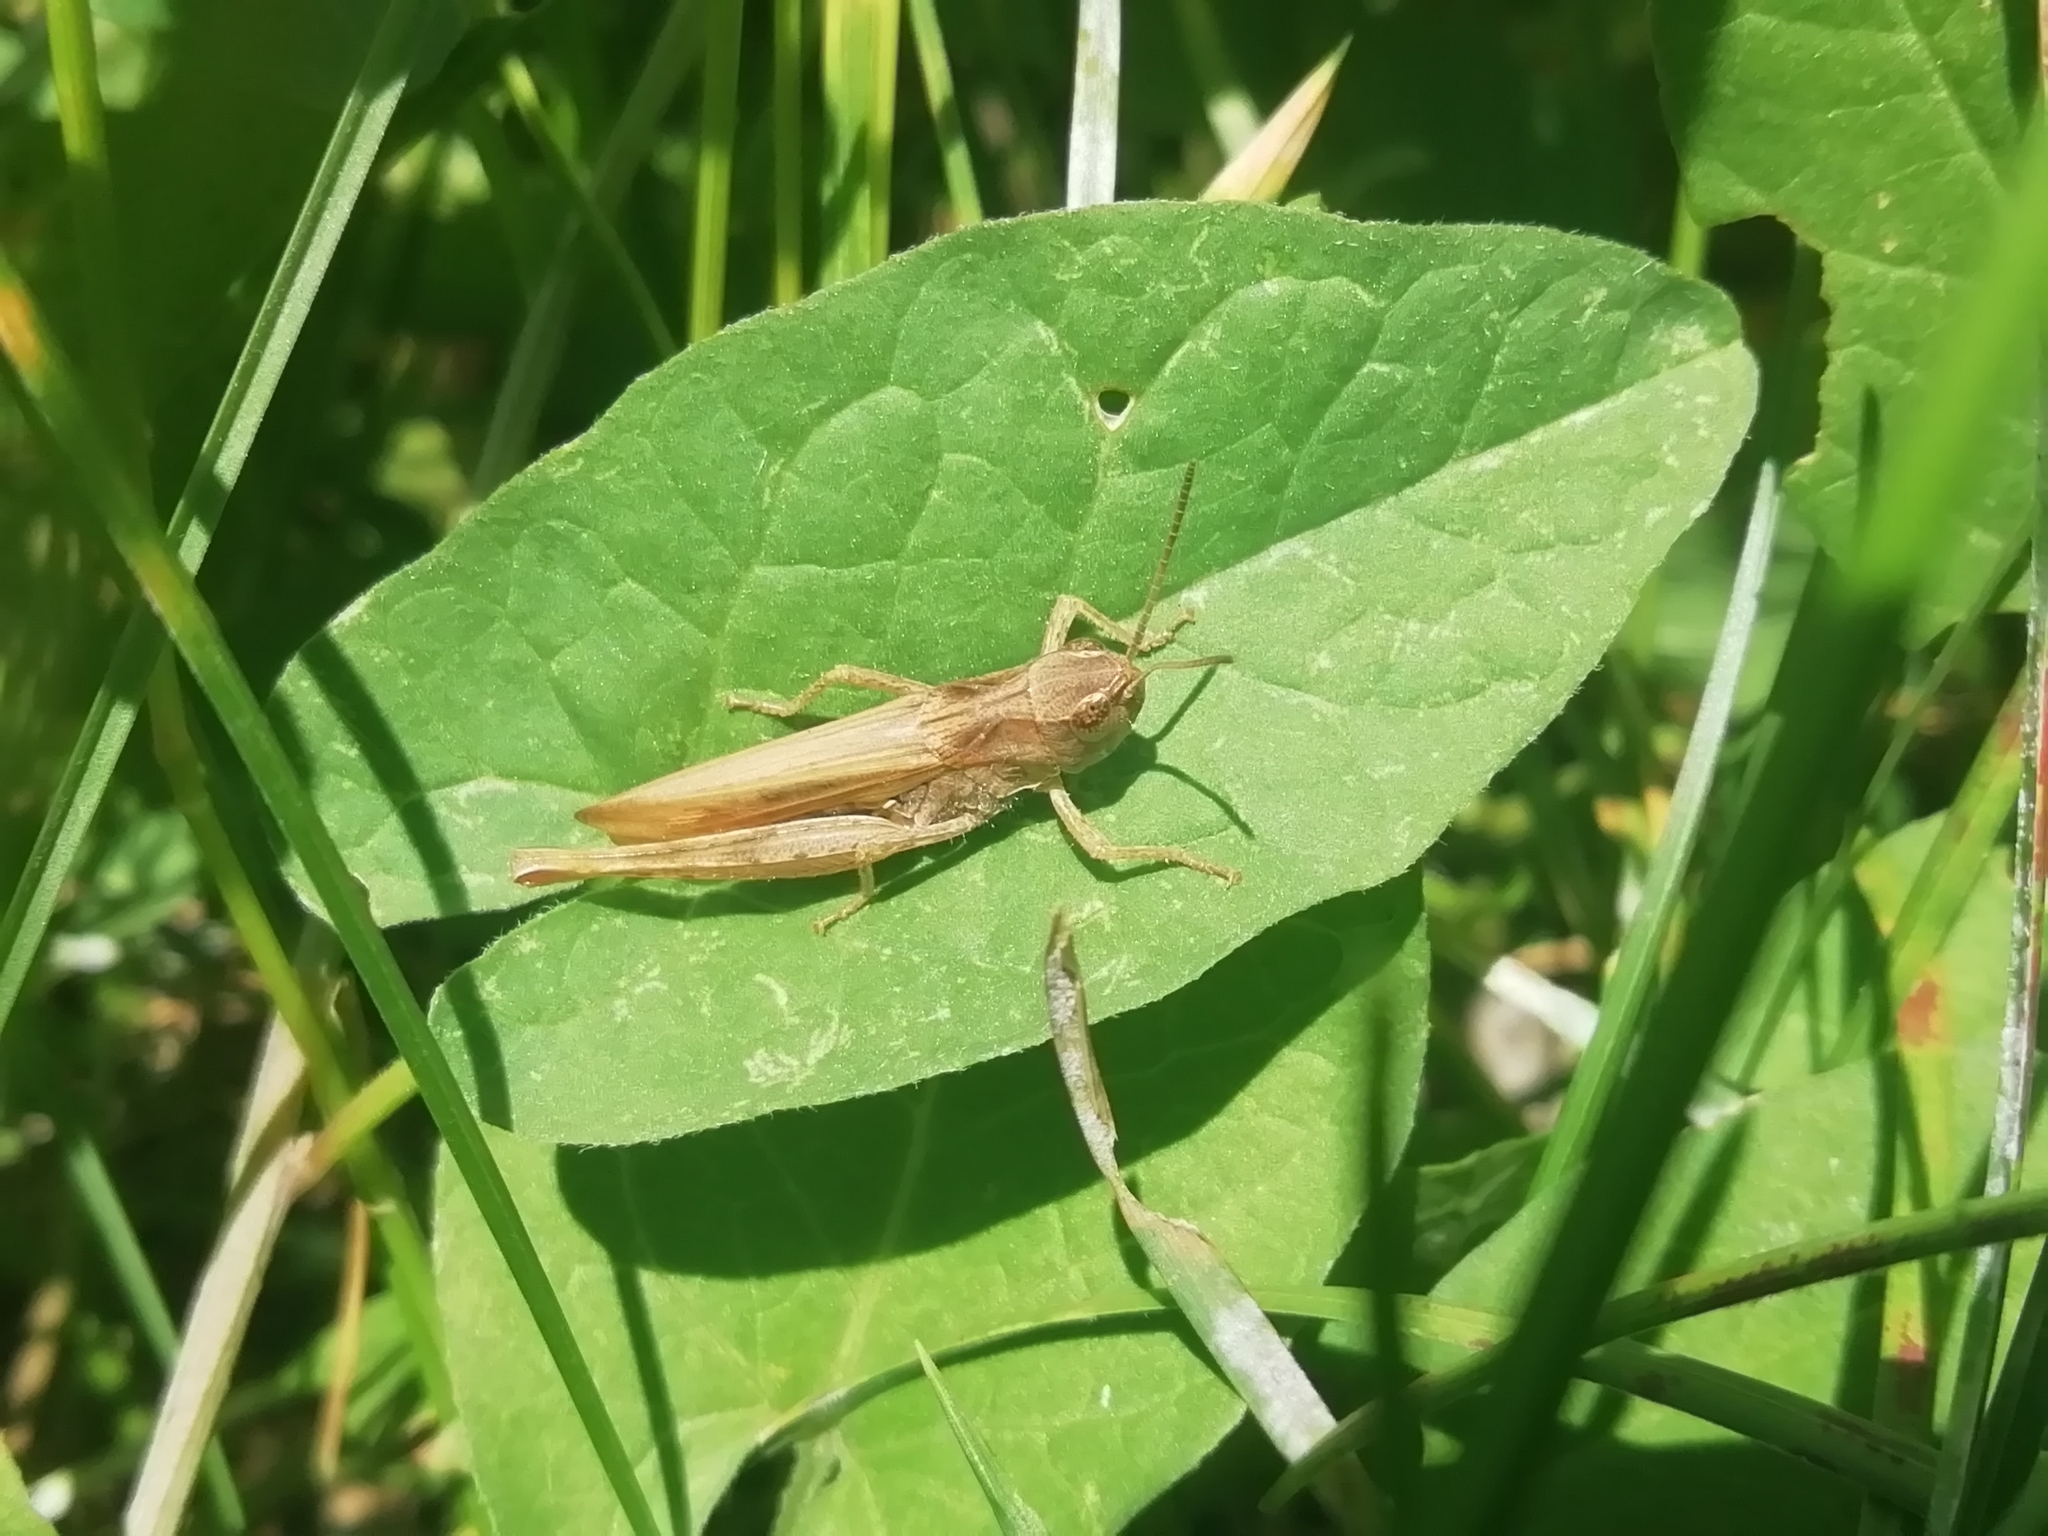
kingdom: Animalia
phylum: Arthropoda
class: Insecta
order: Orthoptera
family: Acrididae
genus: Chorthippus
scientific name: Chorthippus apricarius
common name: Upland field grasshopper
